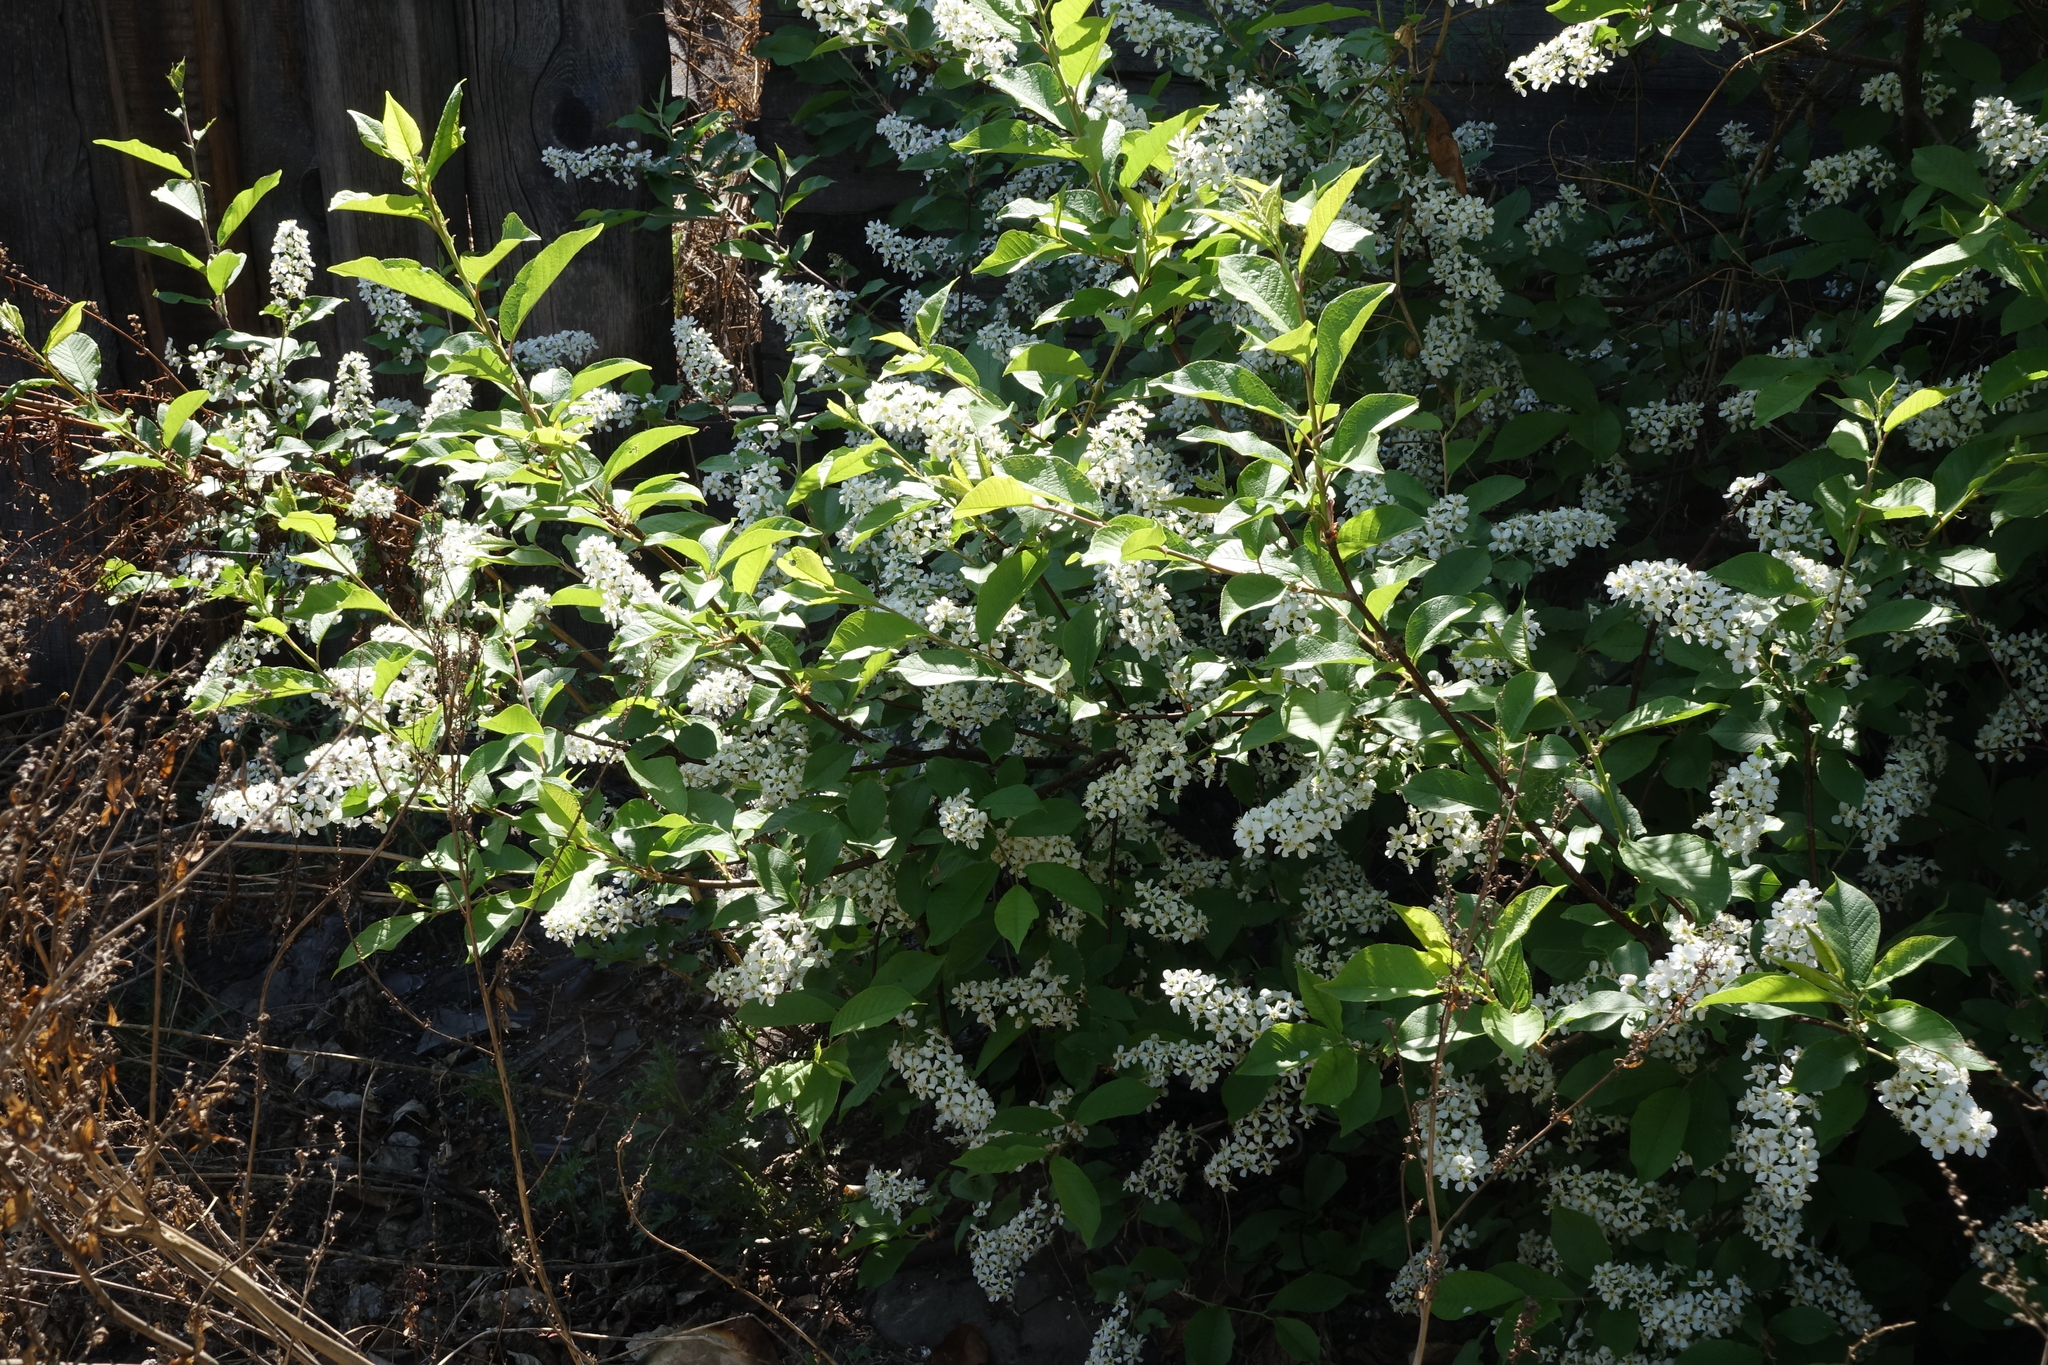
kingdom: Plantae
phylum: Tracheophyta
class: Magnoliopsida
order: Rosales
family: Rosaceae
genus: Prunus
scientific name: Prunus padus
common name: Bird cherry
